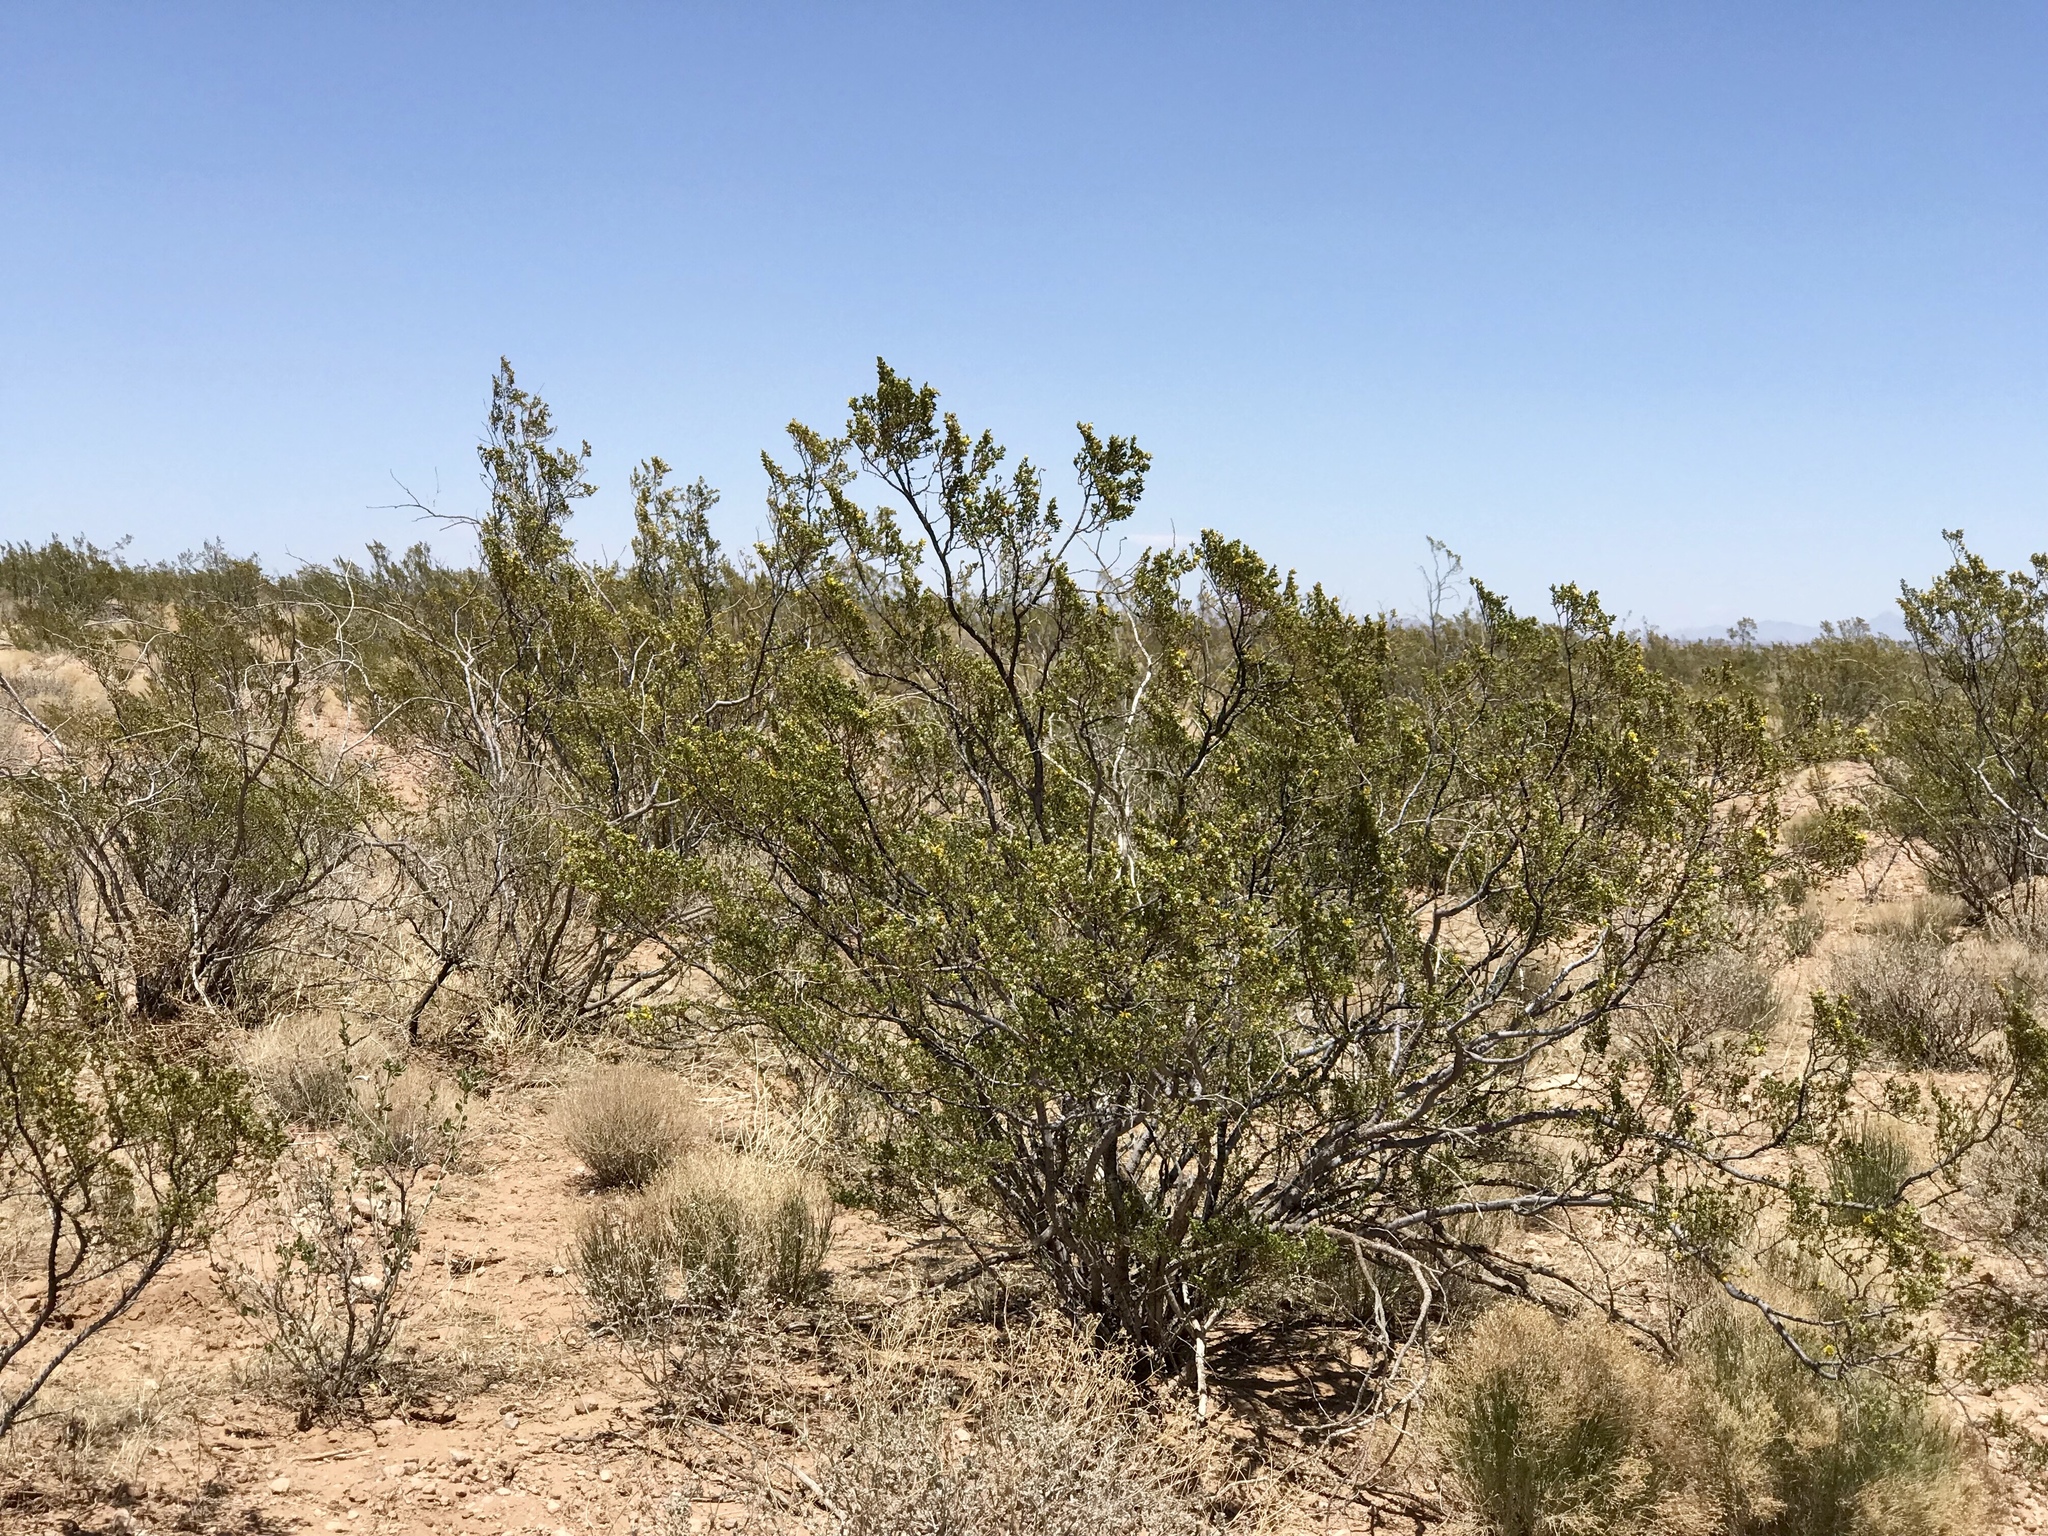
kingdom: Plantae
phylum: Tracheophyta
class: Magnoliopsida
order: Zygophyllales
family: Zygophyllaceae
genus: Larrea
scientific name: Larrea tridentata
